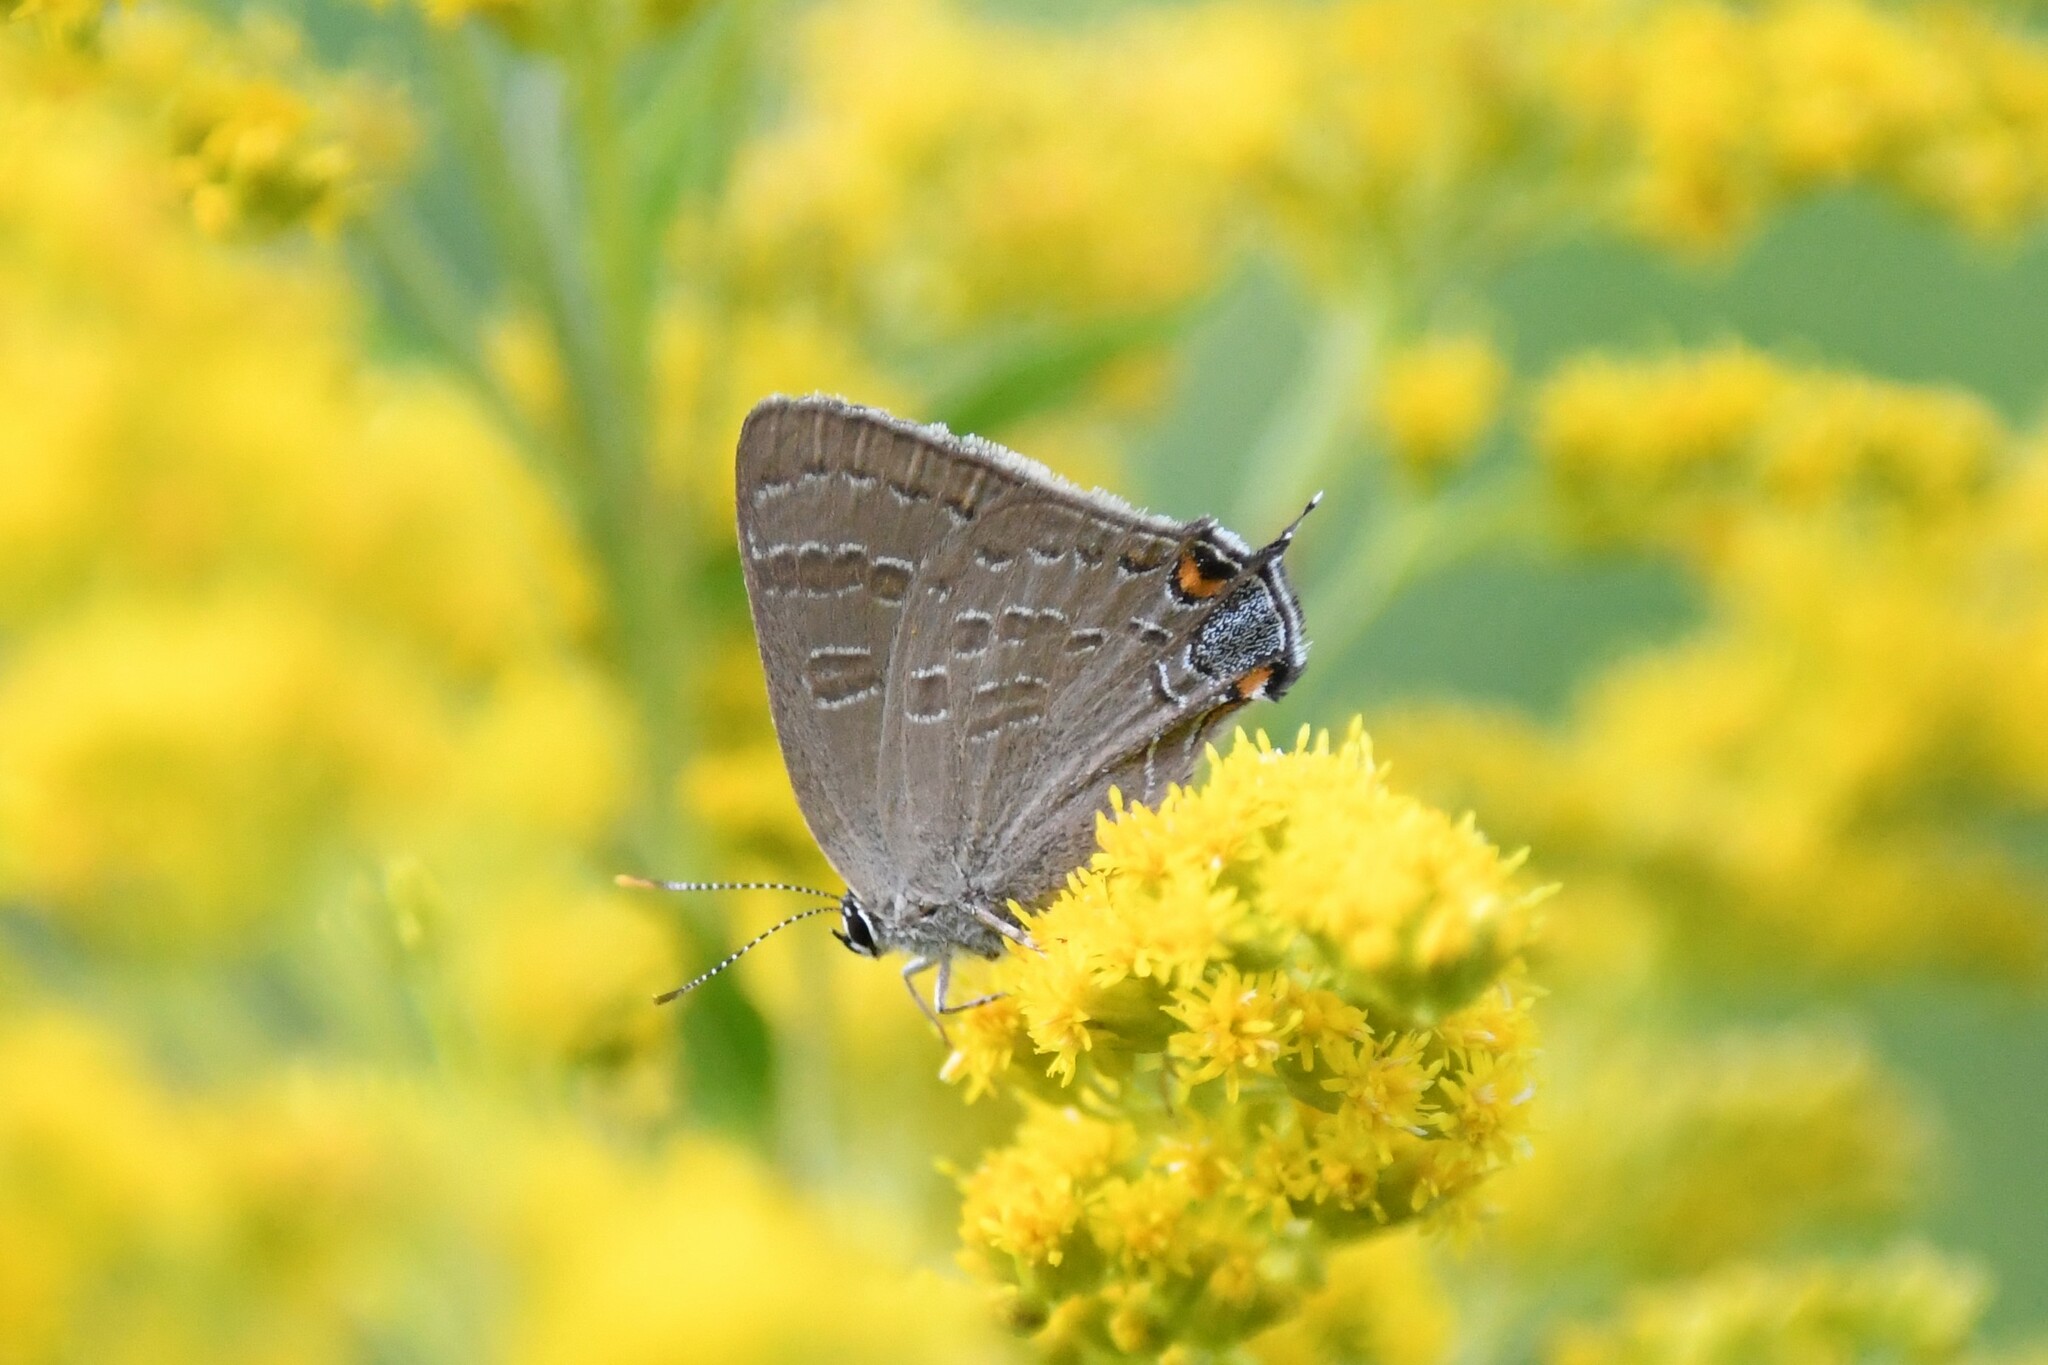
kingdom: Animalia
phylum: Arthropoda
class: Insecta
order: Lepidoptera
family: Lycaenidae
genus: Strymon
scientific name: Strymon caryaevorus
